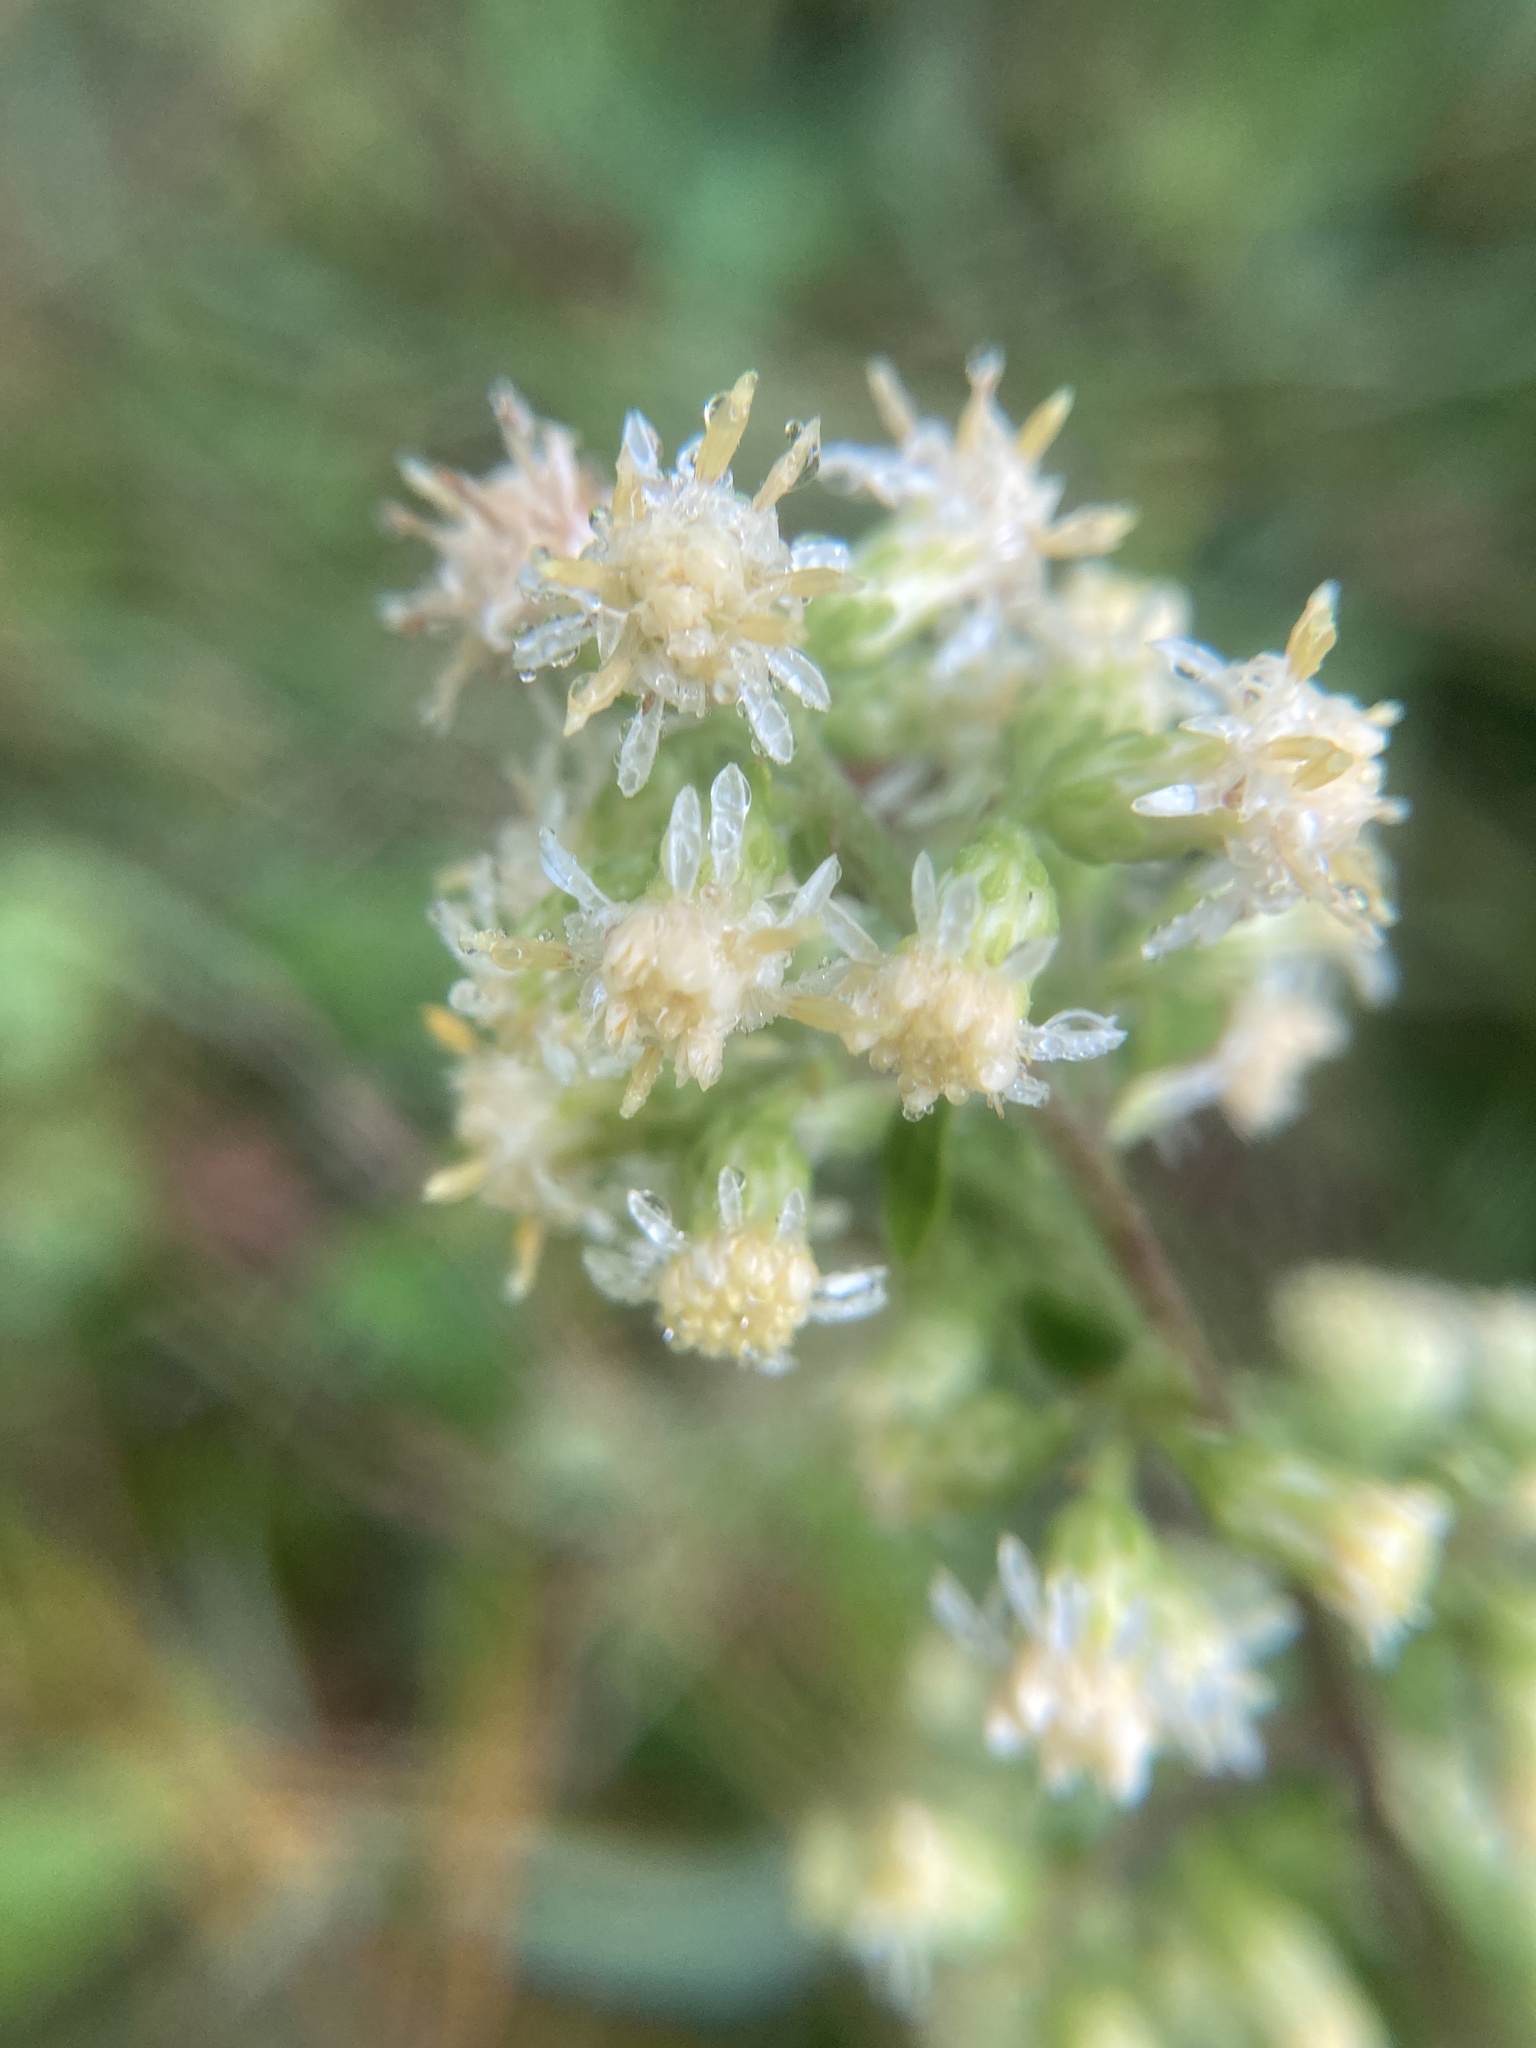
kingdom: Plantae
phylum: Tracheophyta
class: Magnoliopsida
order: Asterales
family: Asteraceae
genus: Solidago
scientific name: Solidago bicolor
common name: Silverrod
